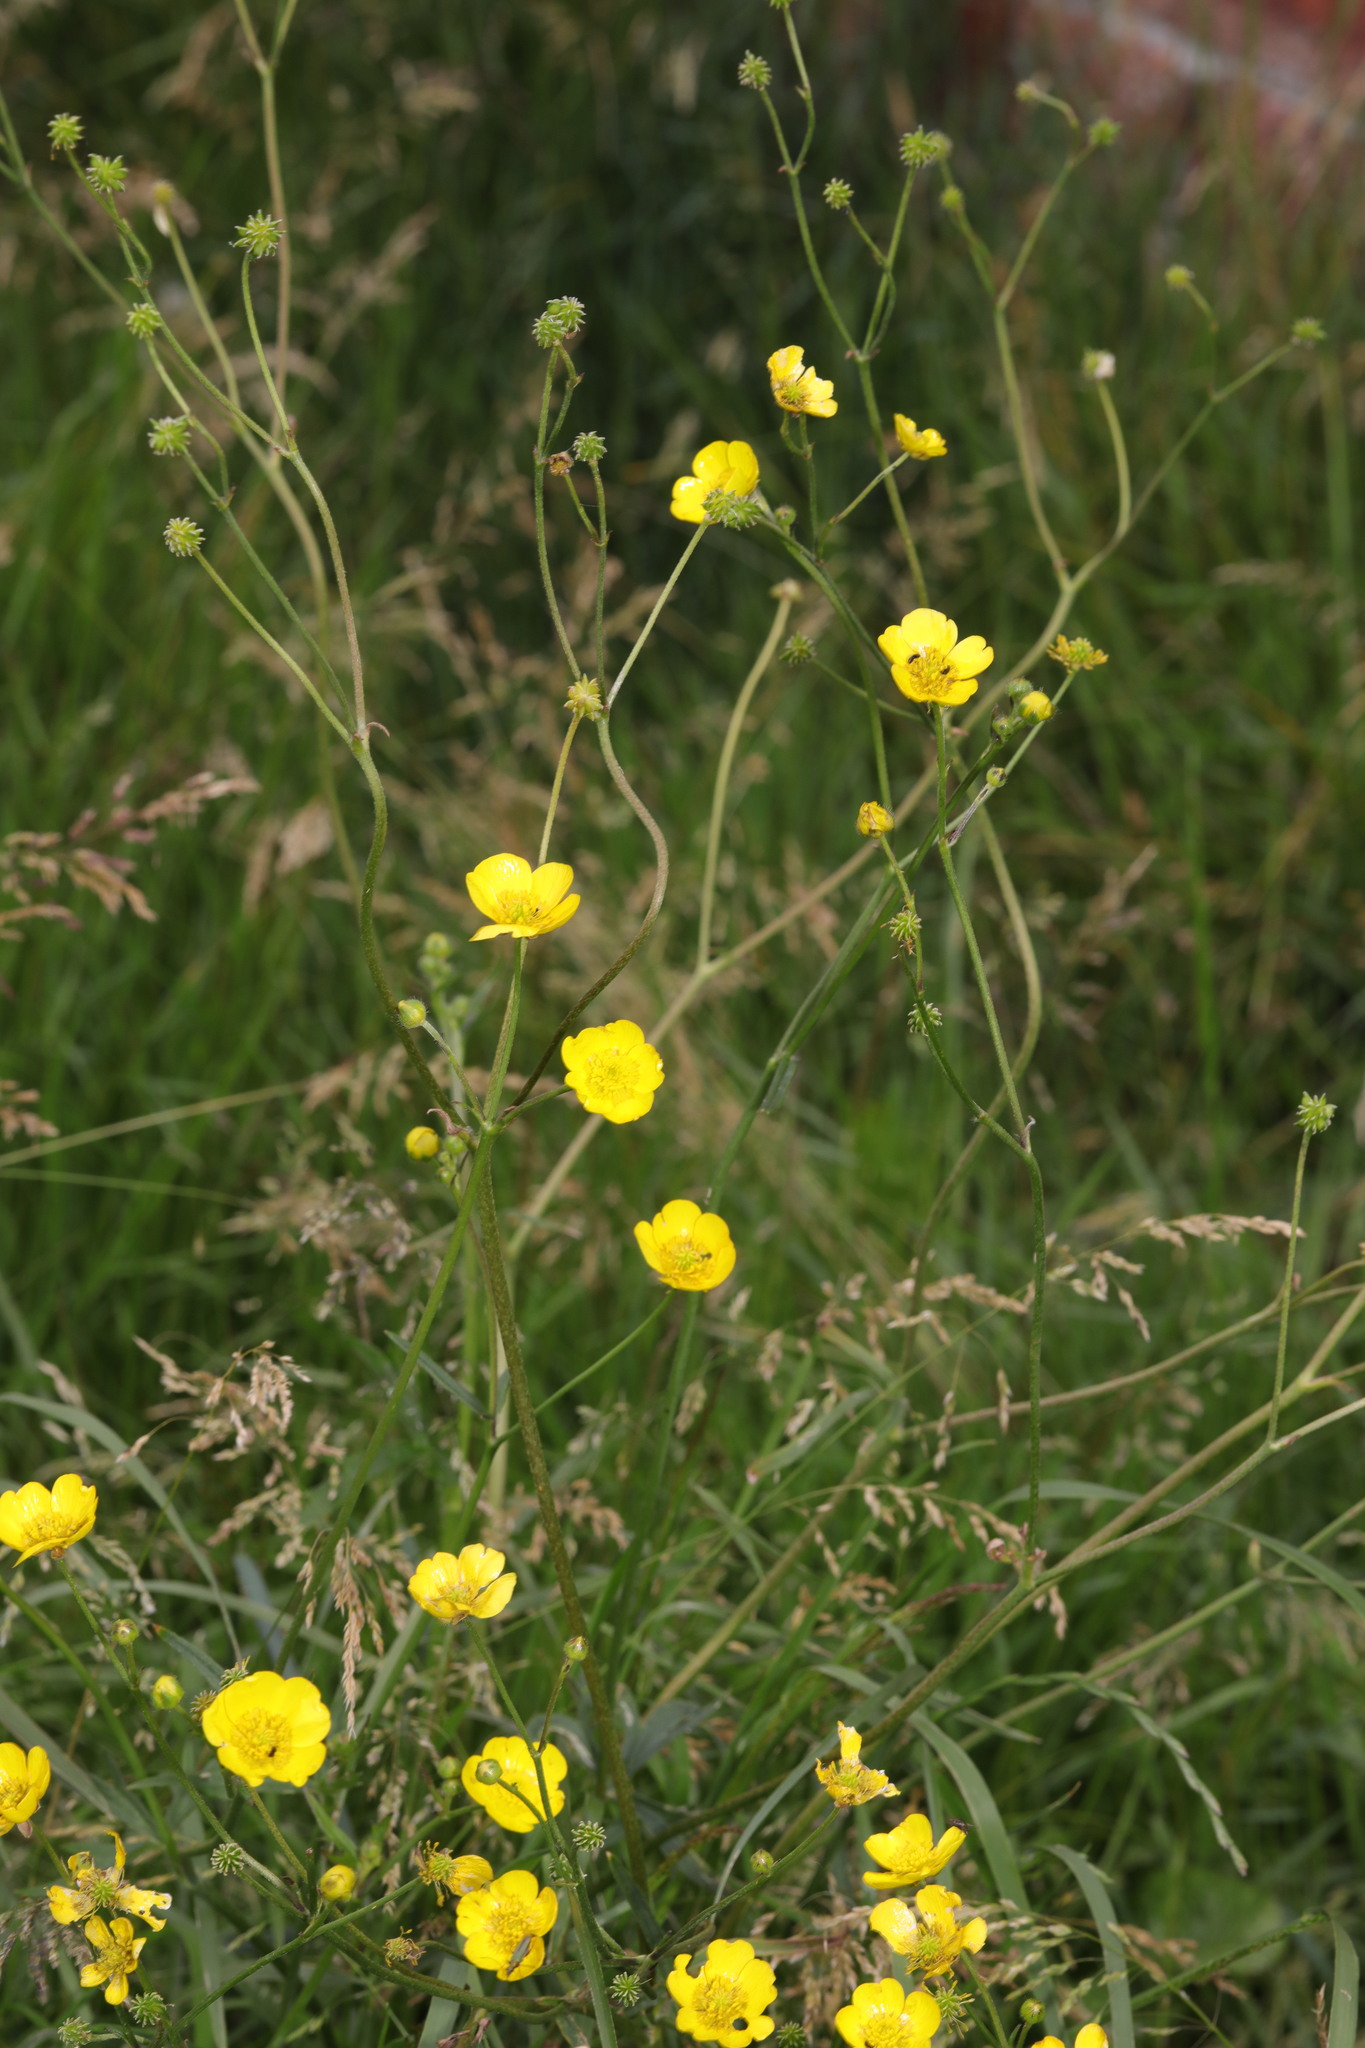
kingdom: Plantae
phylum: Tracheophyta
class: Magnoliopsida
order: Ranunculales
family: Ranunculaceae
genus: Ranunculus
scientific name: Ranunculus acris
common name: Meadow buttercup
